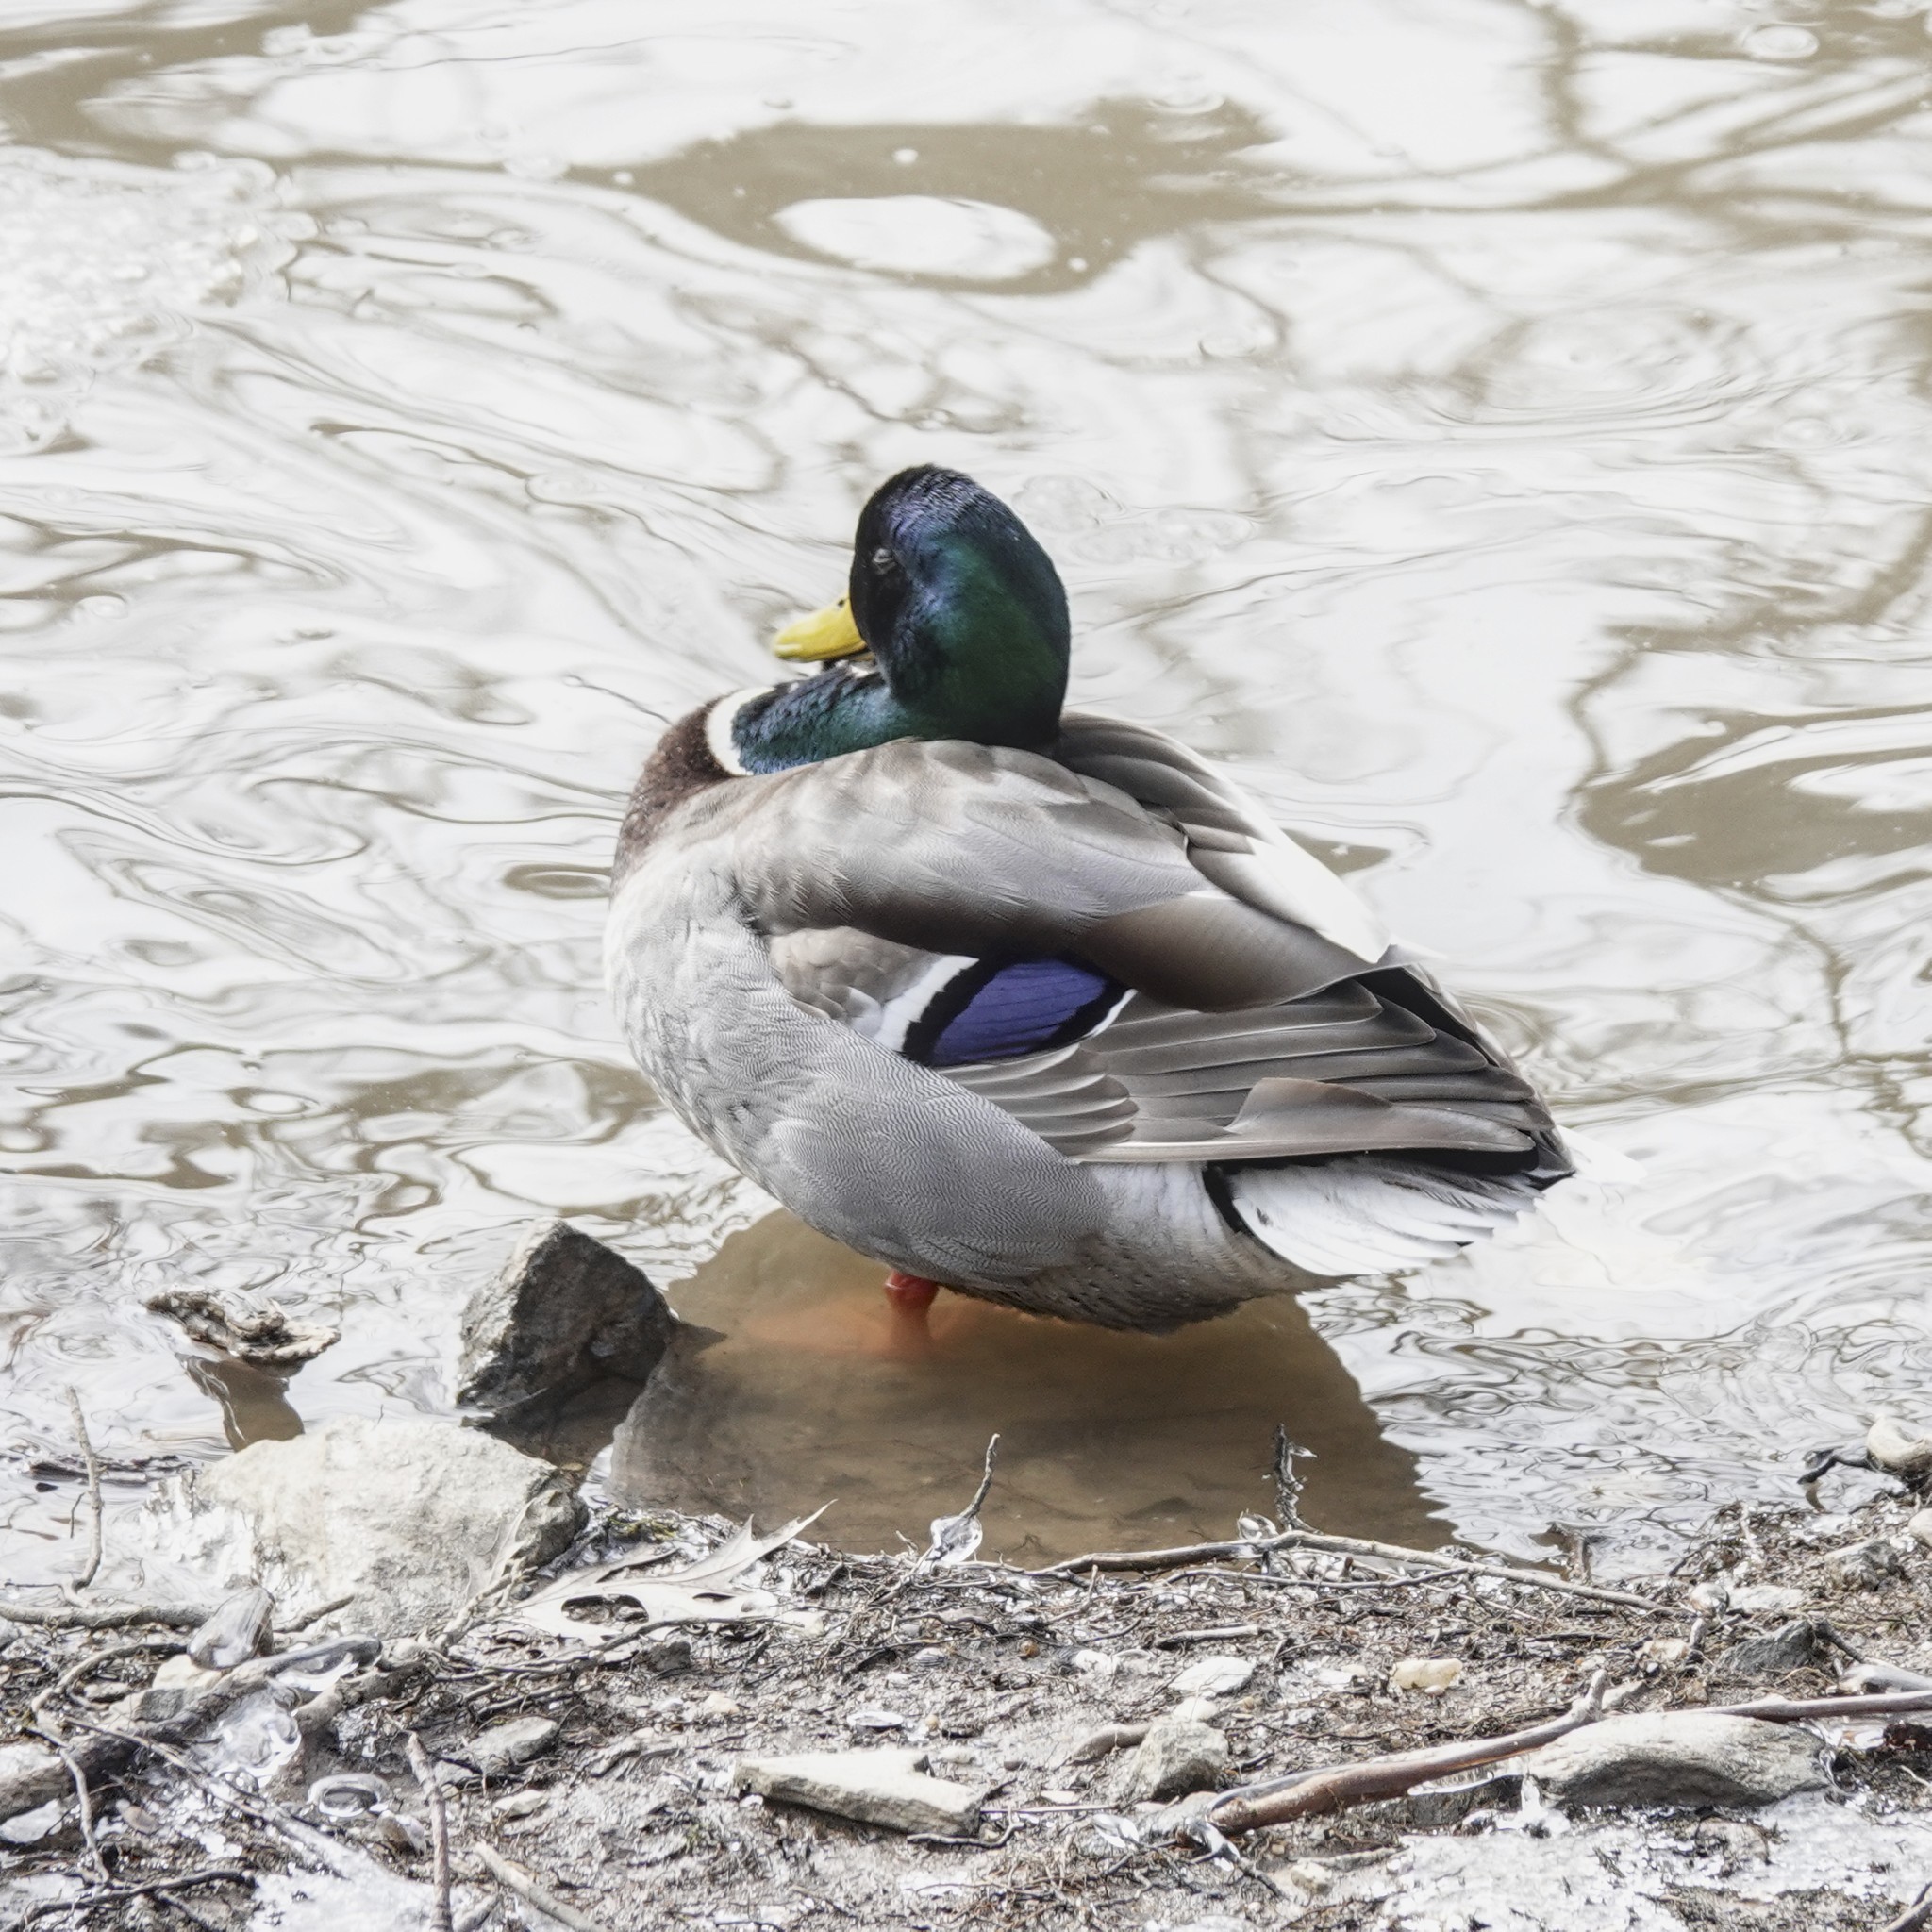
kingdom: Animalia
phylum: Chordata
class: Aves
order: Anseriformes
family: Anatidae
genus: Anas
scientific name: Anas platyrhynchos
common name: Mallard
